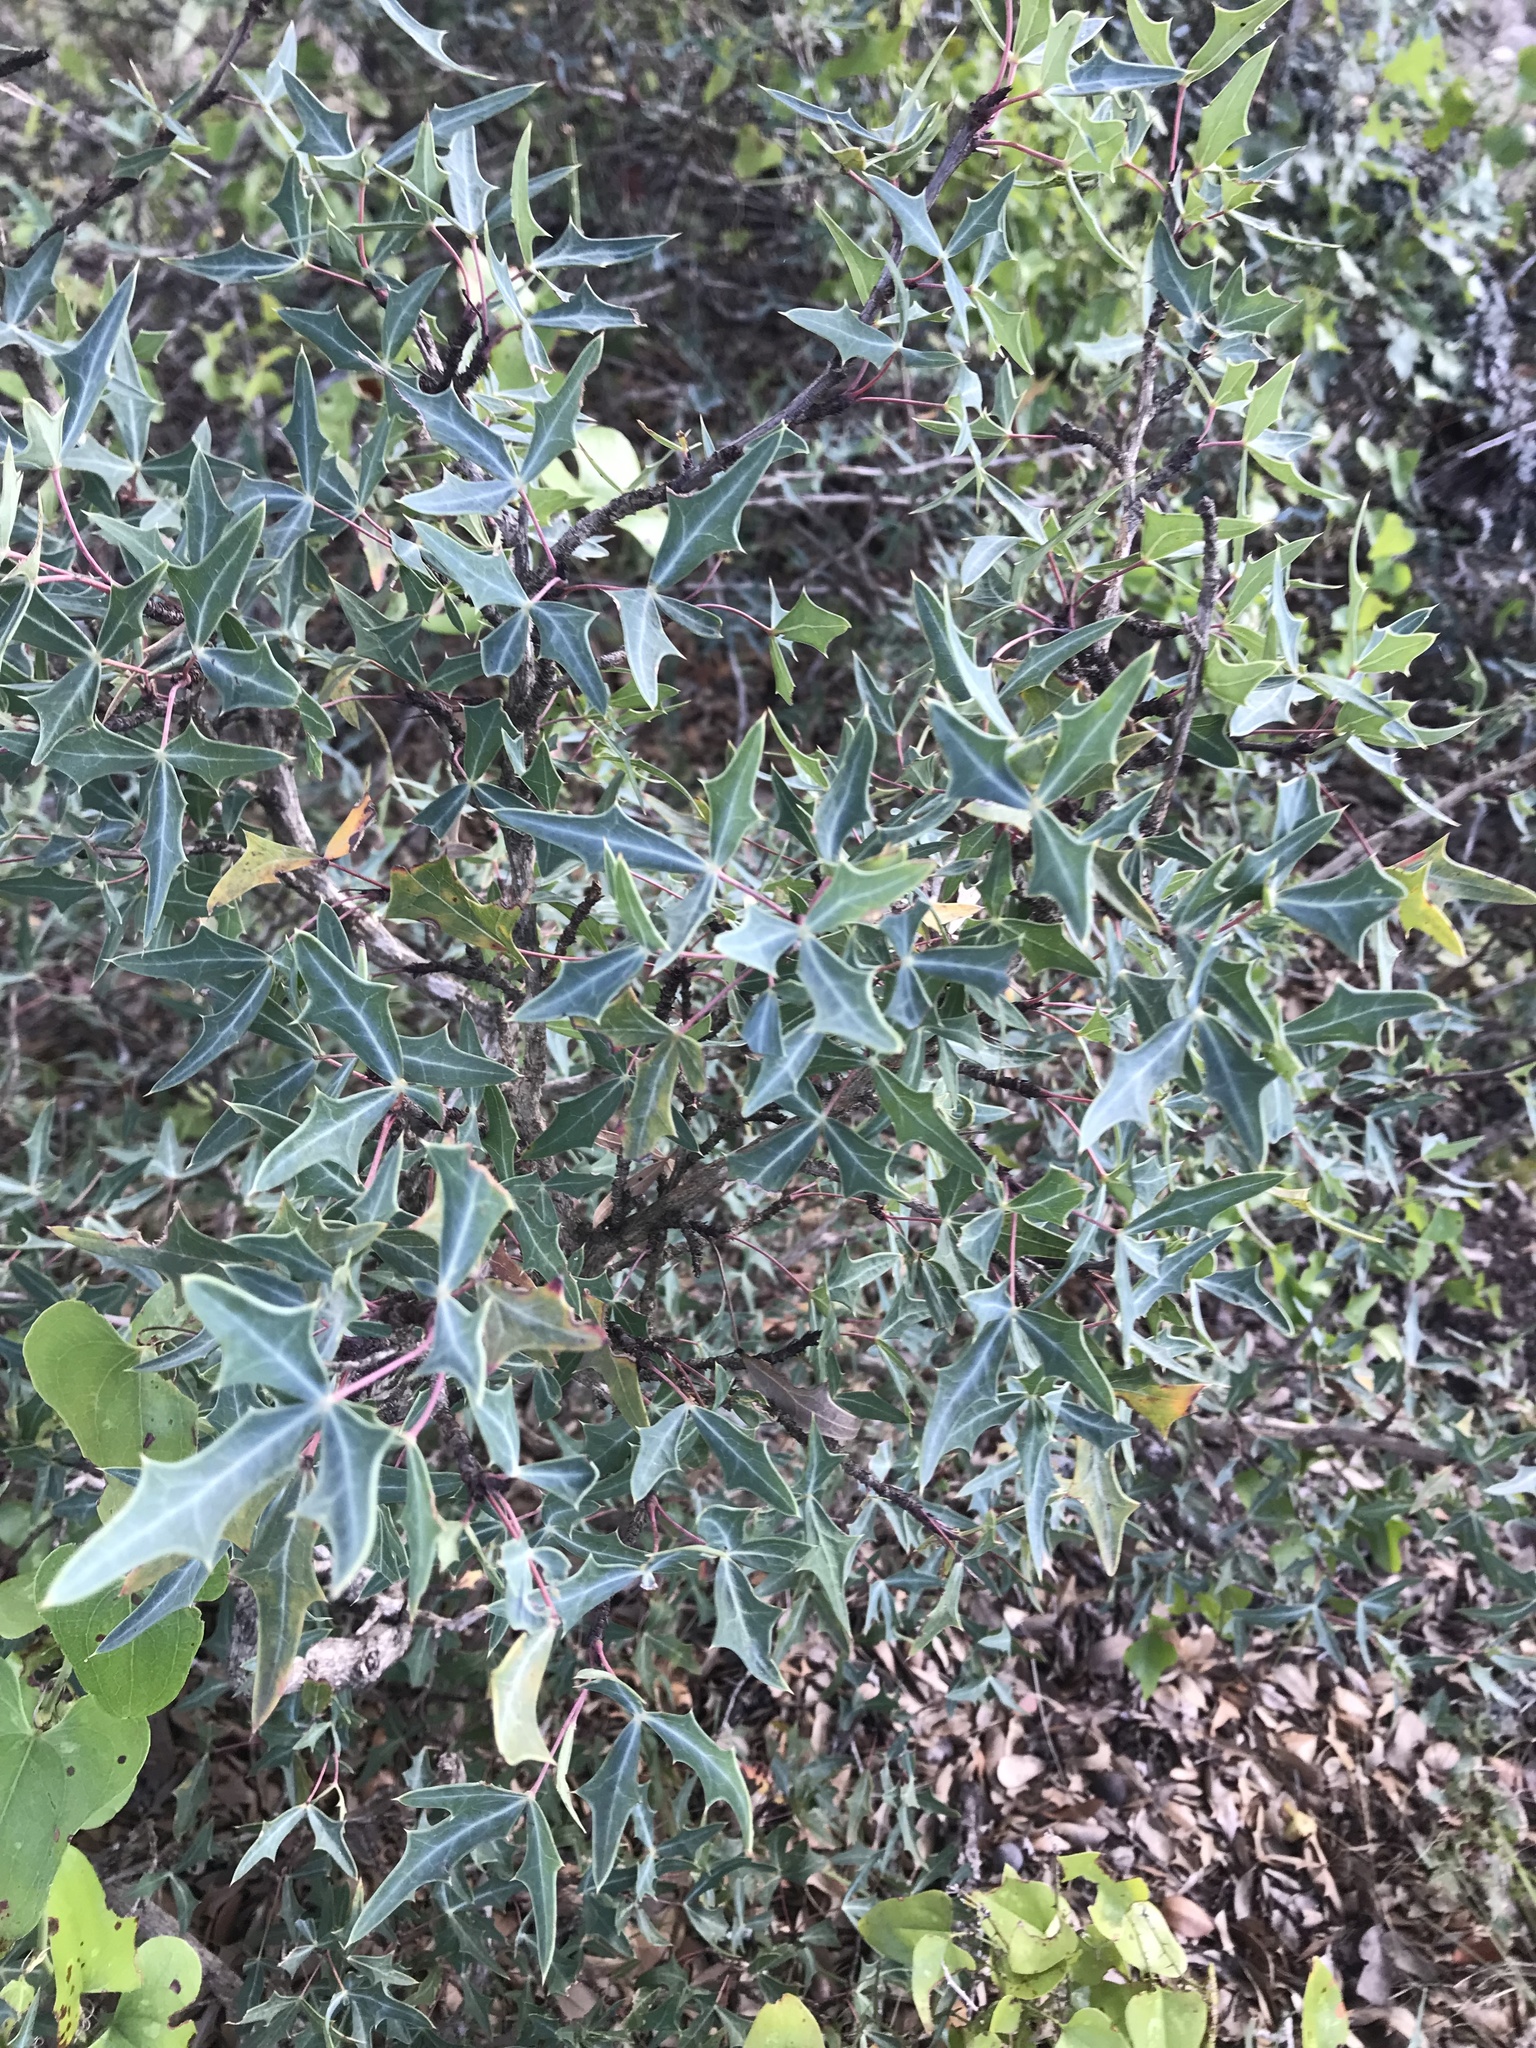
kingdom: Plantae
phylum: Tracheophyta
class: Magnoliopsida
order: Ranunculales
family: Berberidaceae
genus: Alloberberis
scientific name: Alloberberis trifoliolata
